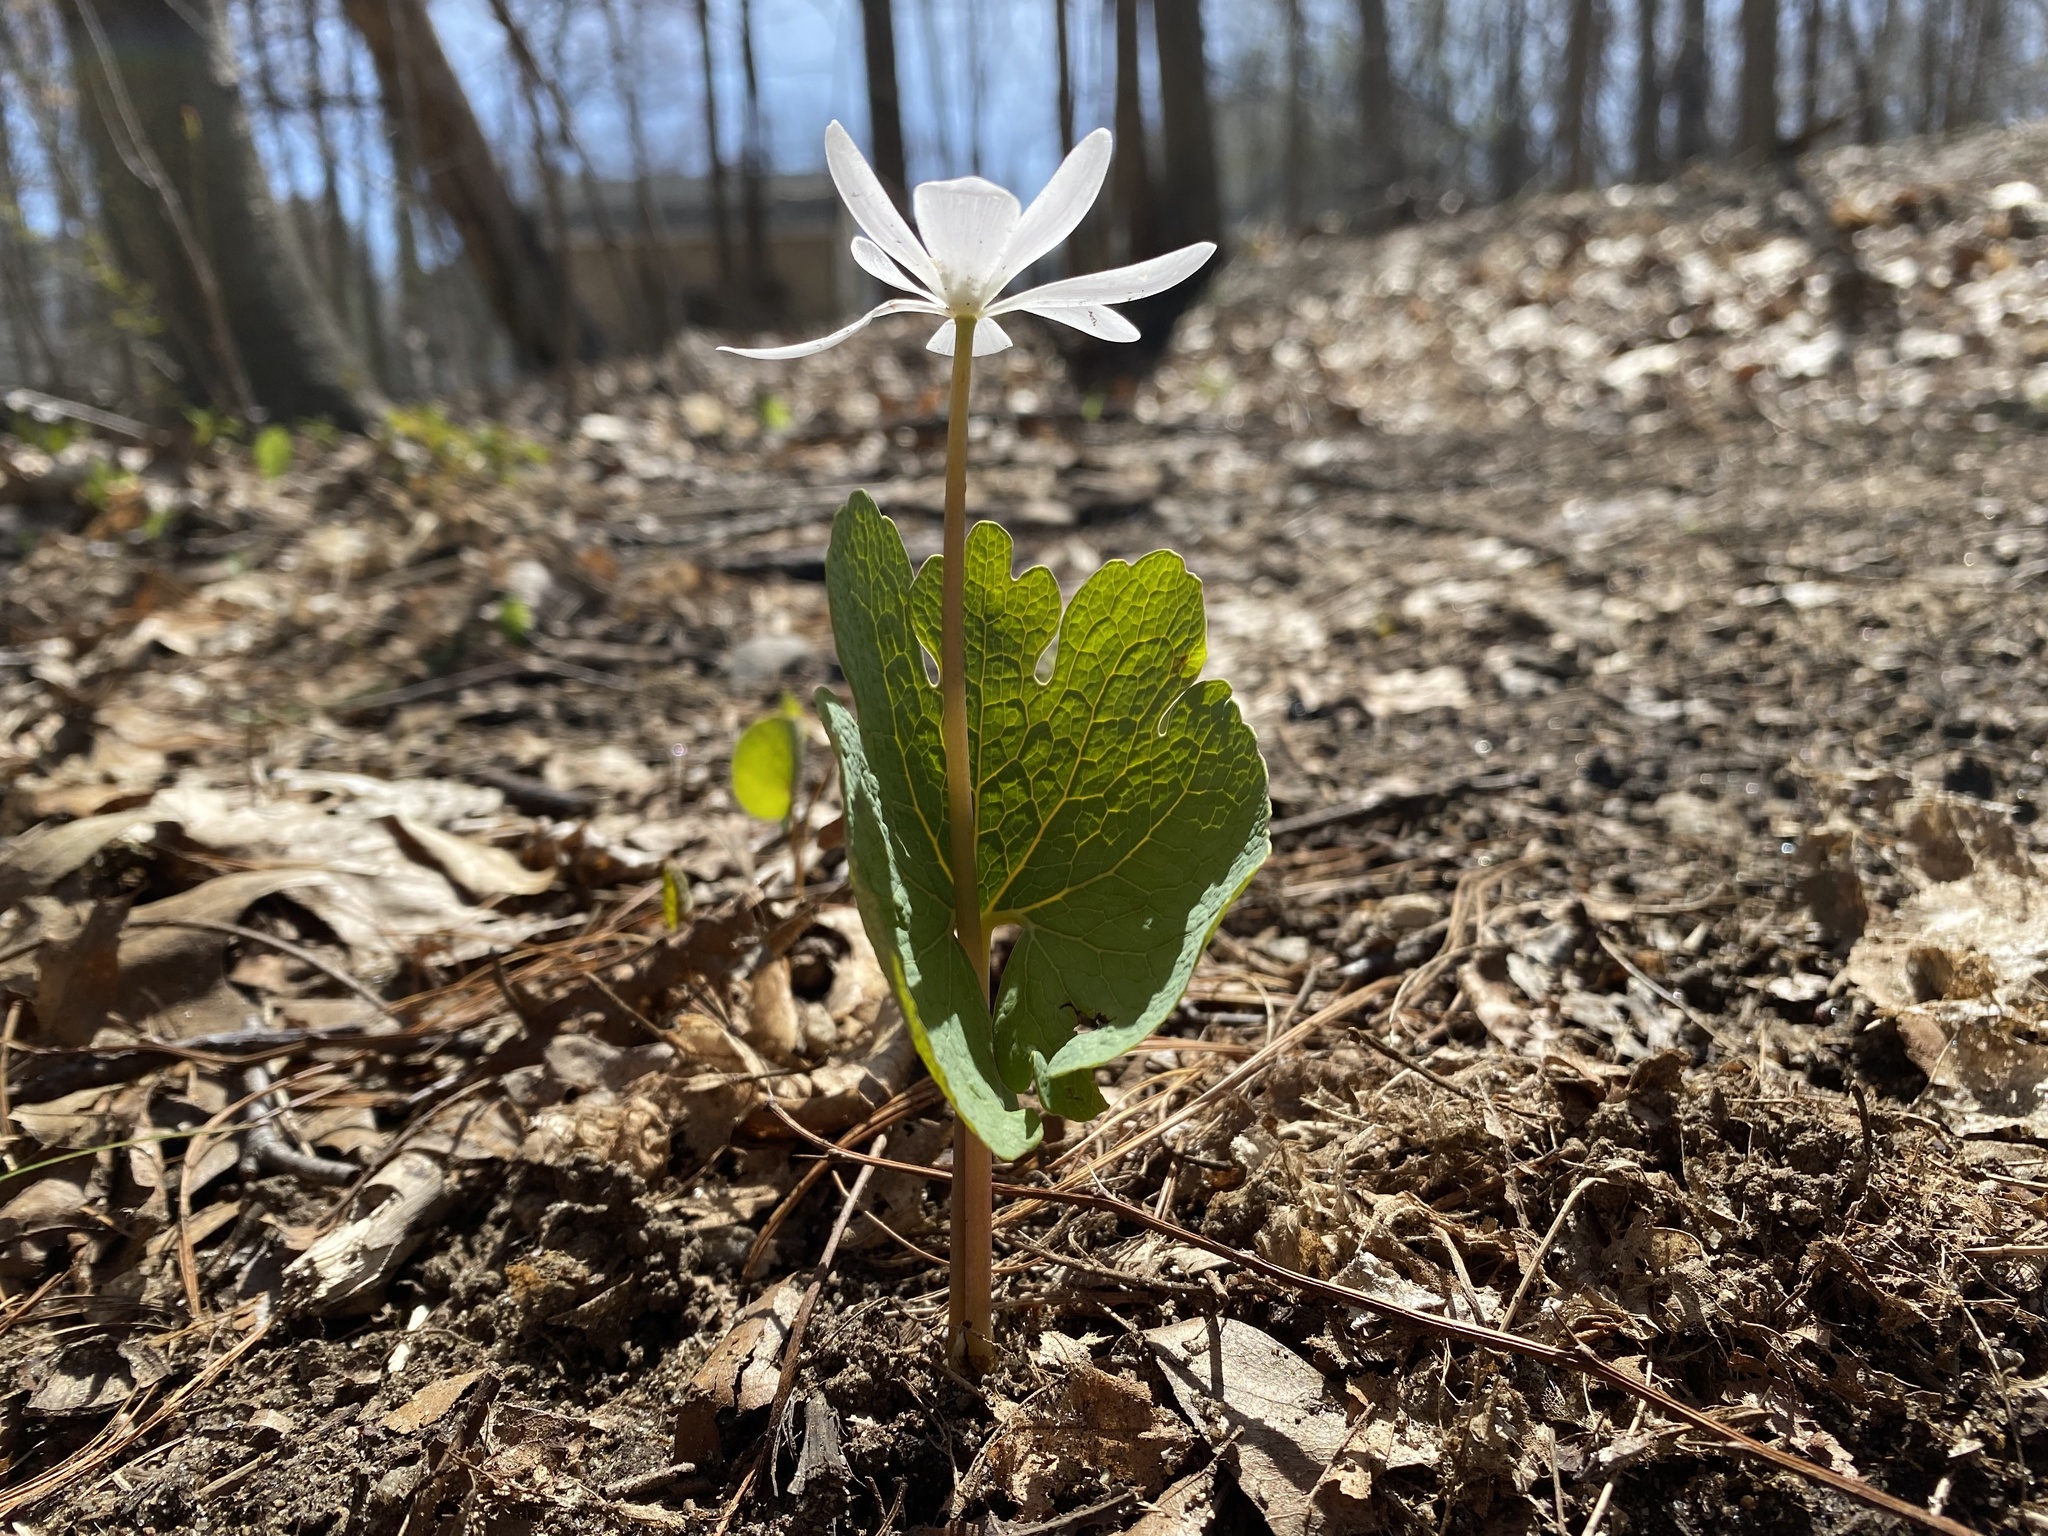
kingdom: Plantae
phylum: Tracheophyta
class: Magnoliopsida
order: Ranunculales
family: Papaveraceae
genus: Sanguinaria
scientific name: Sanguinaria canadensis
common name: Bloodroot
